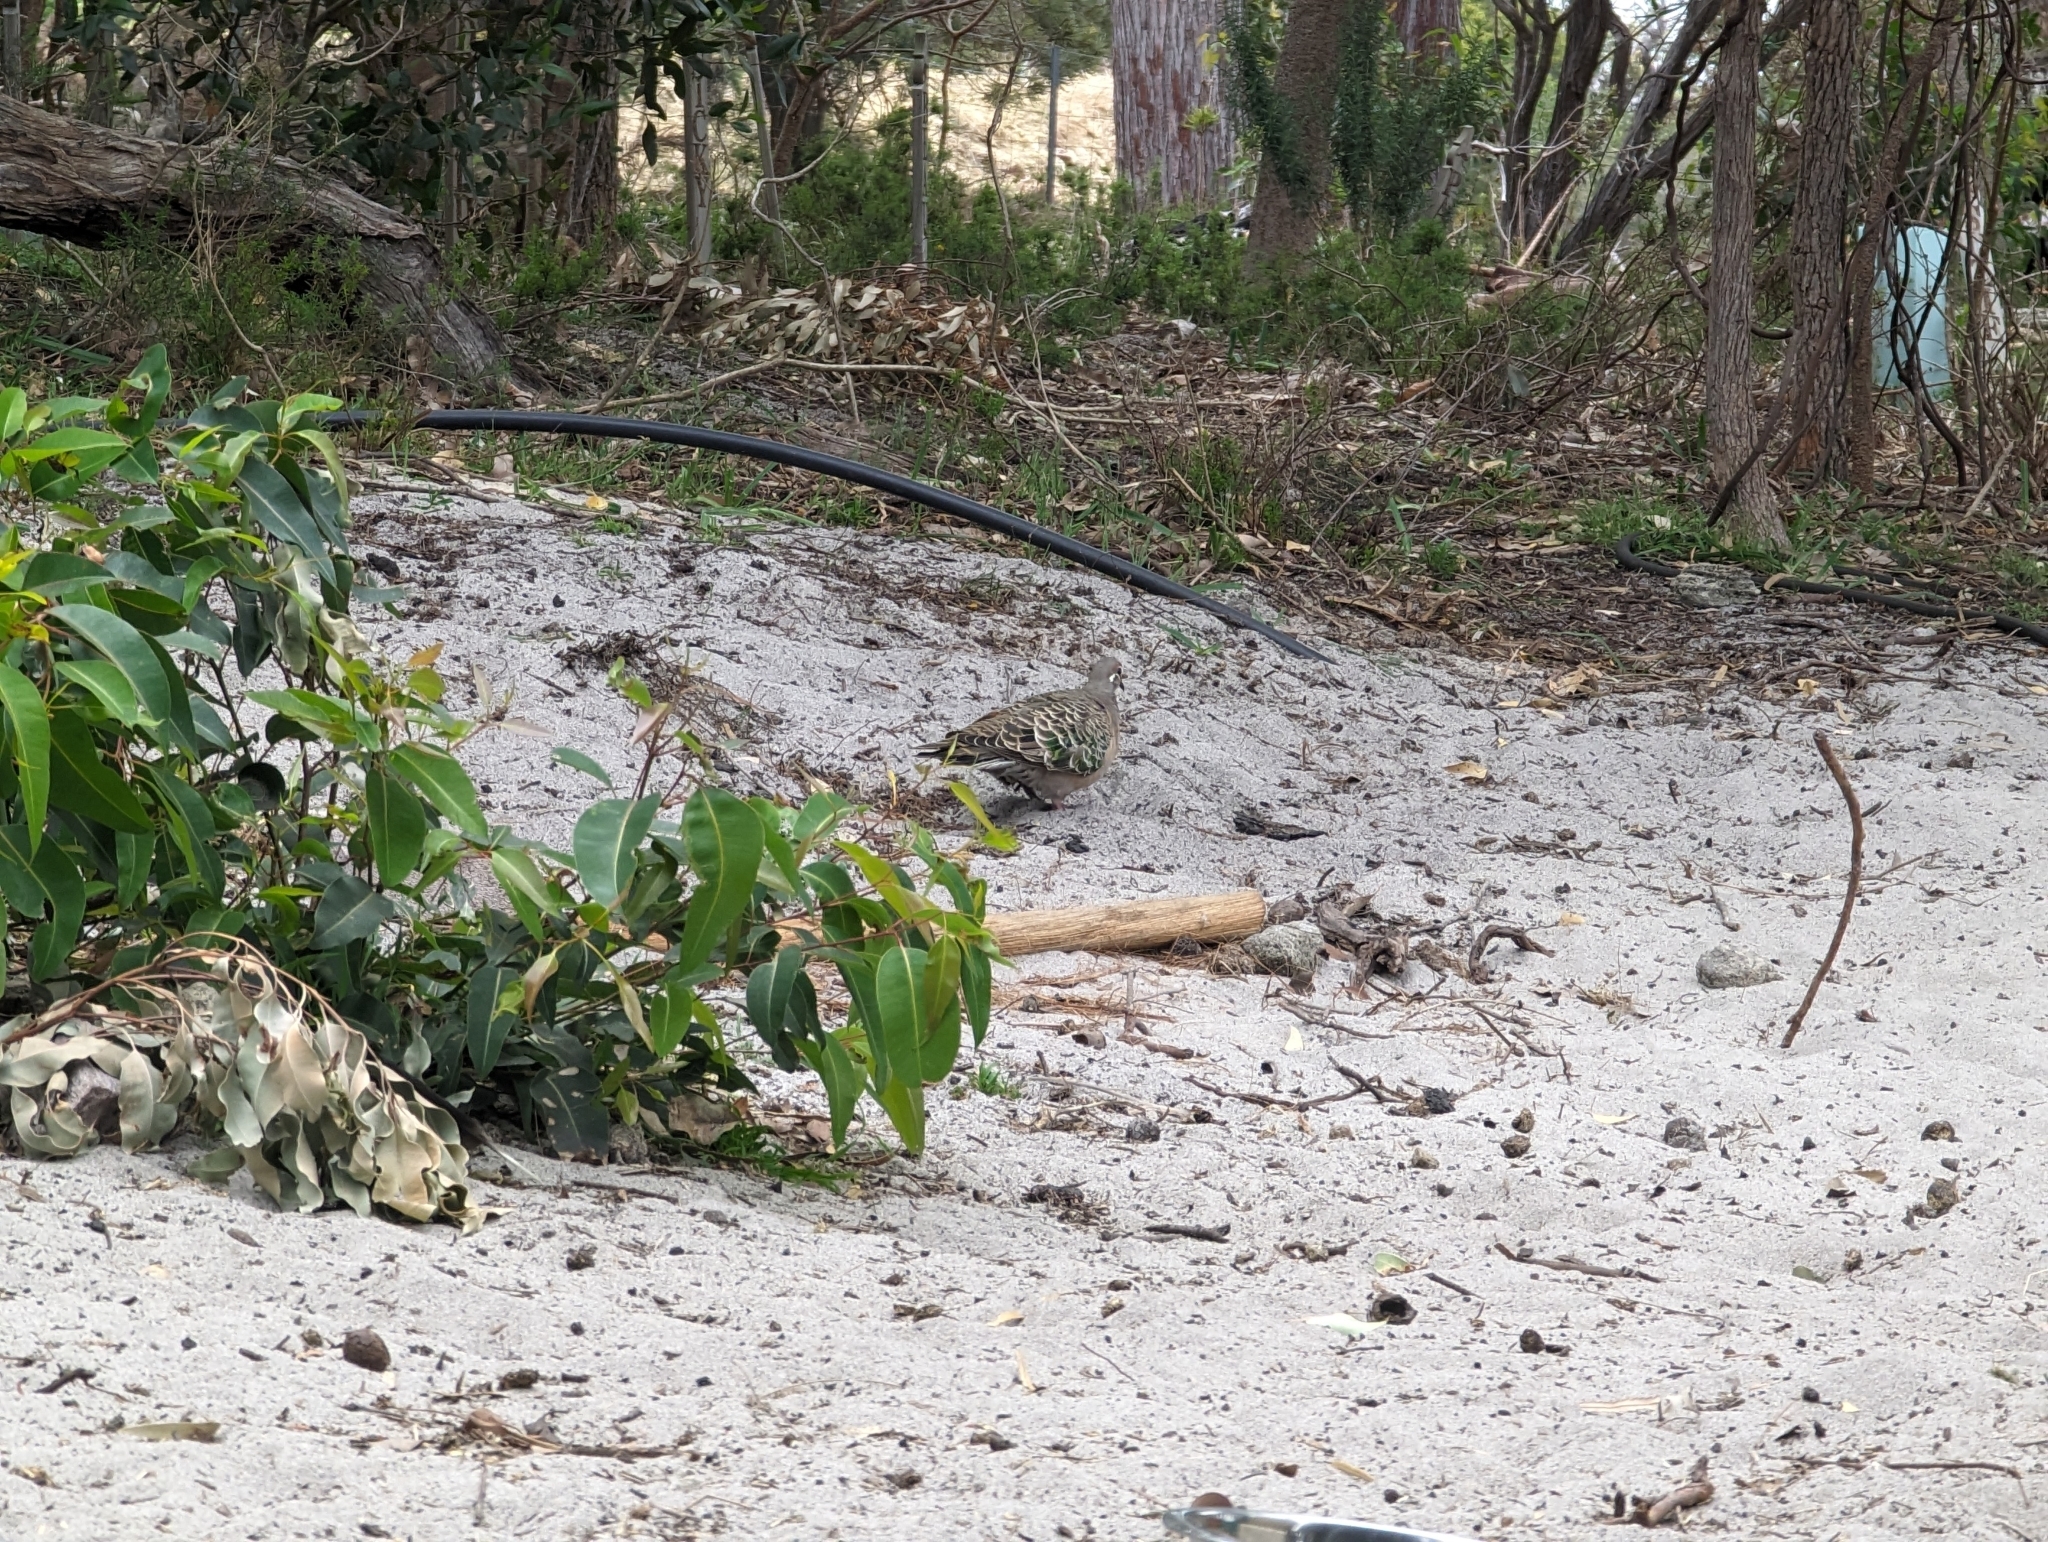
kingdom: Animalia
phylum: Chordata
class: Aves
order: Columbiformes
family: Columbidae
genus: Phaps
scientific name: Phaps chalcoptera
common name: Common bronzewing
